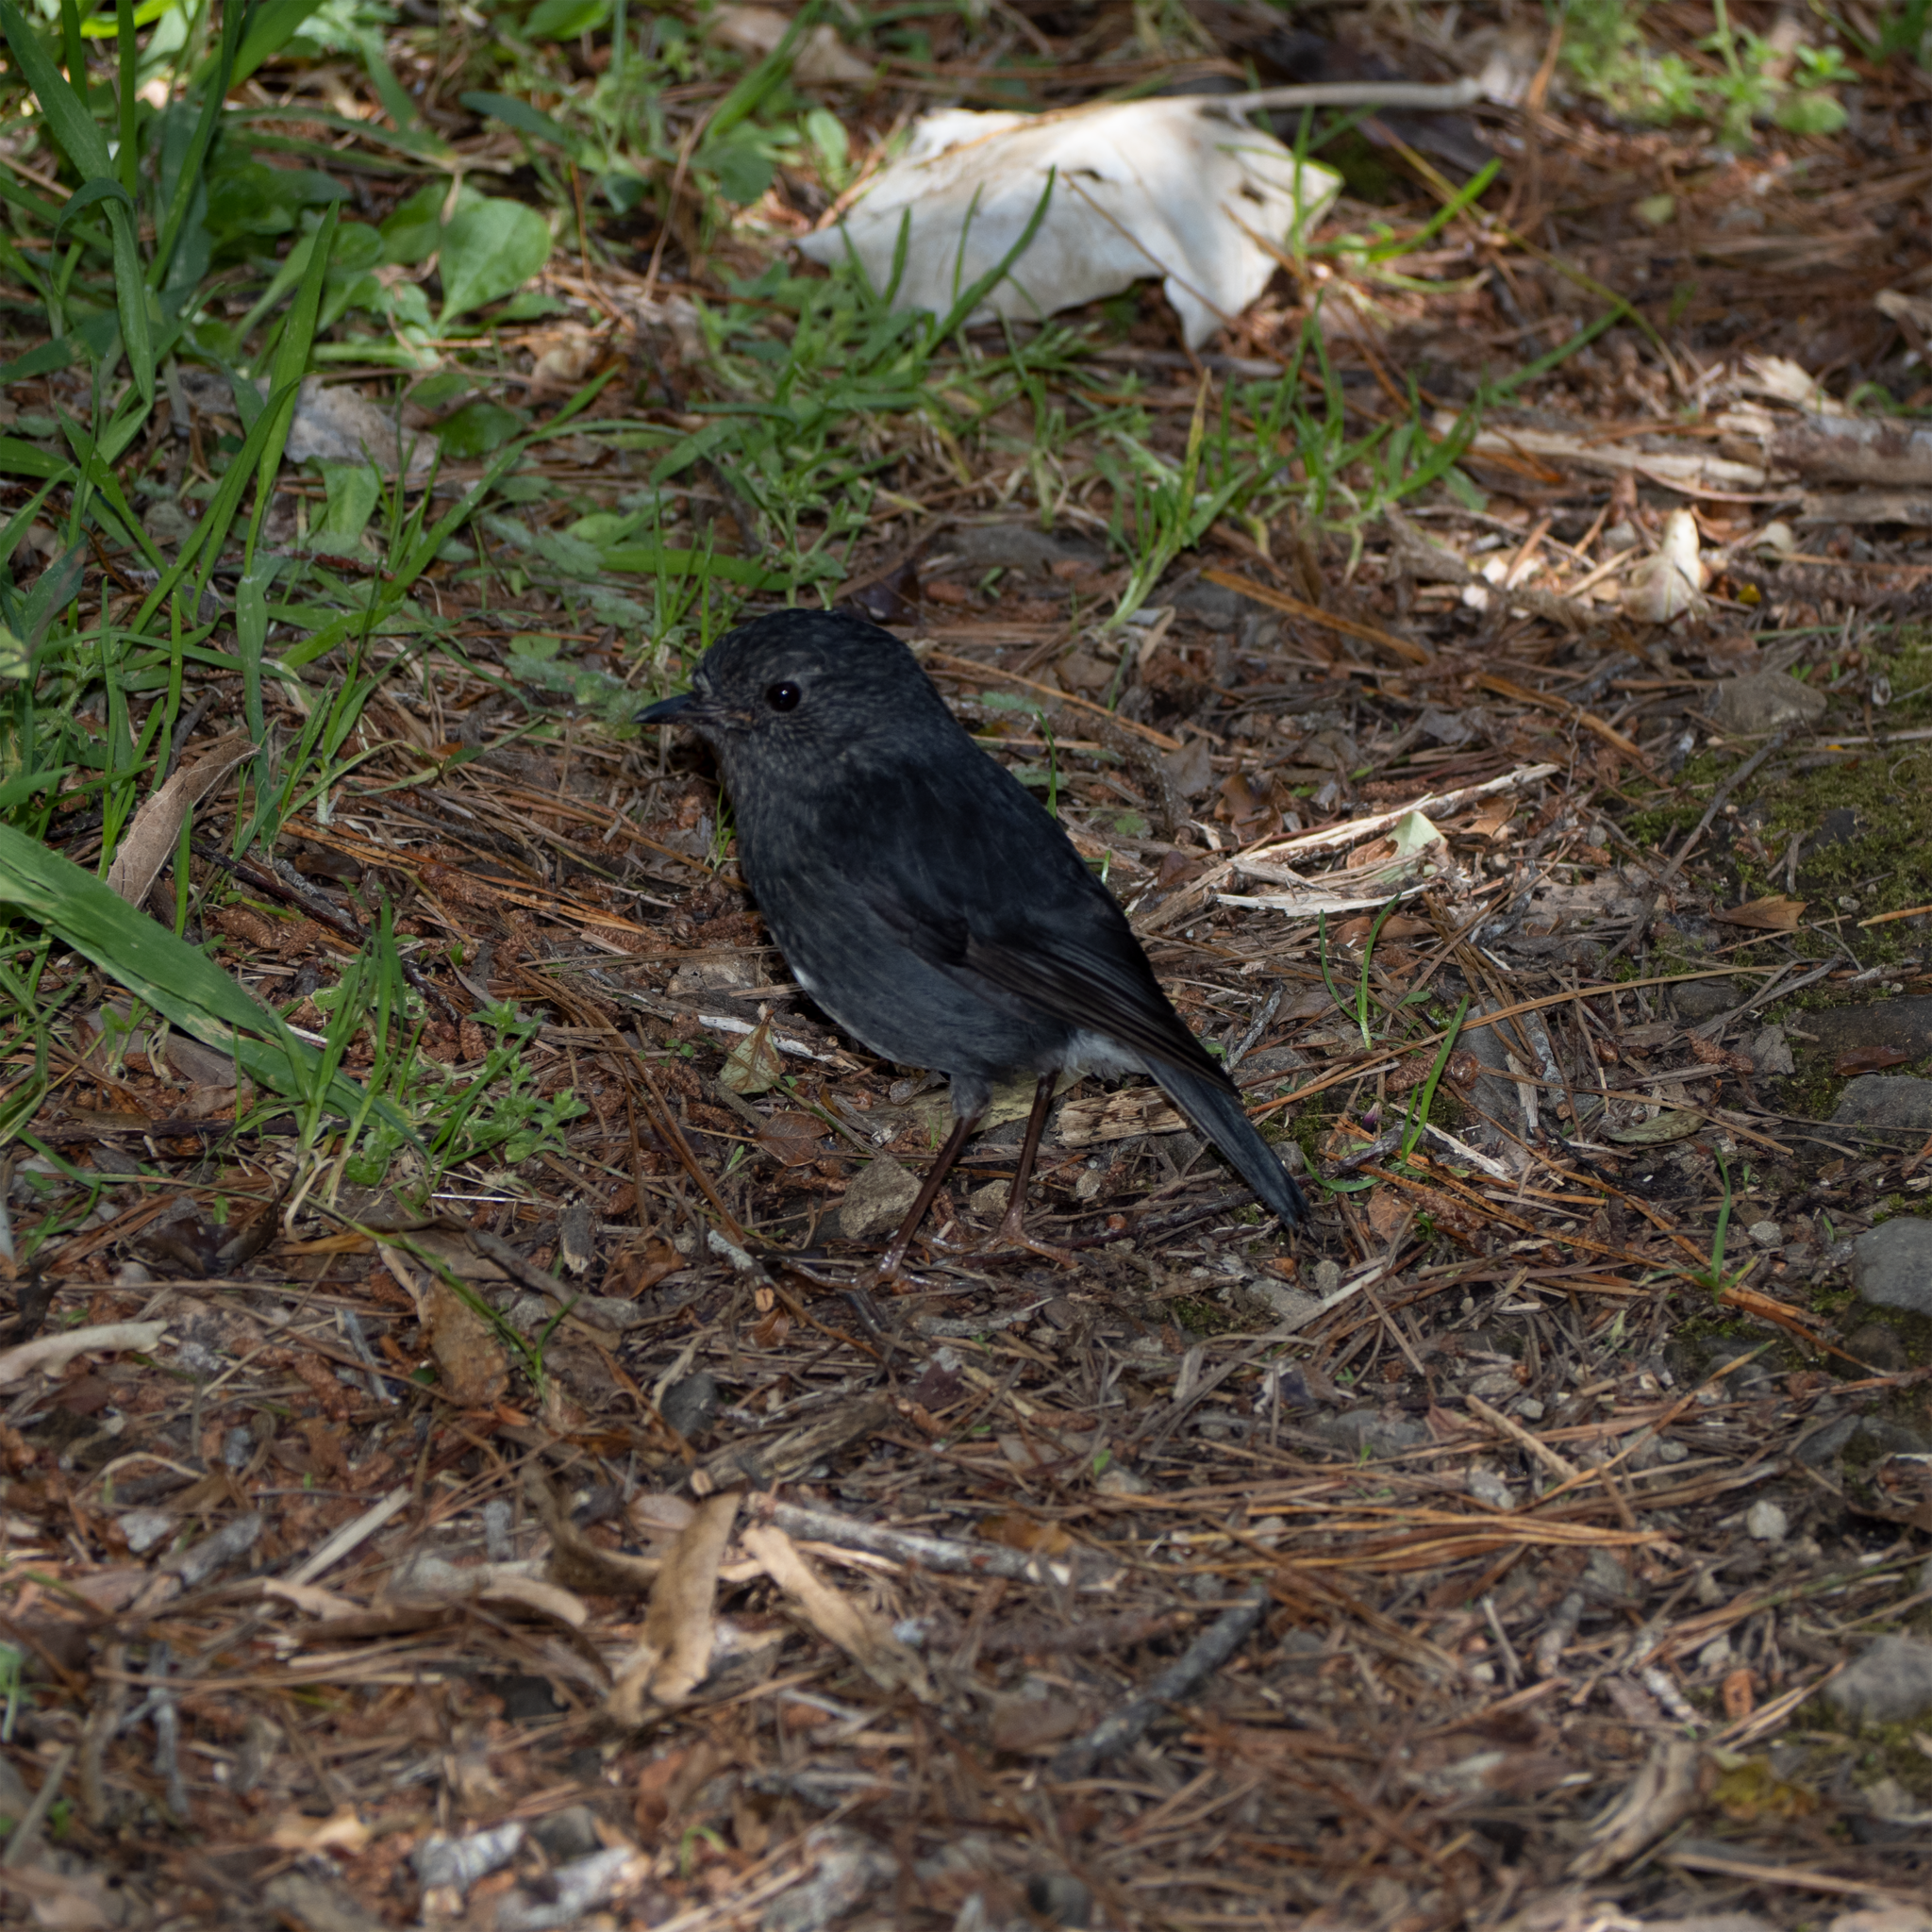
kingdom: Animalia
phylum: Chordata
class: Aves
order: Passeriformes
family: Petroicidae
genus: Petroica
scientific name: Petroica australis
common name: New zealand robin
